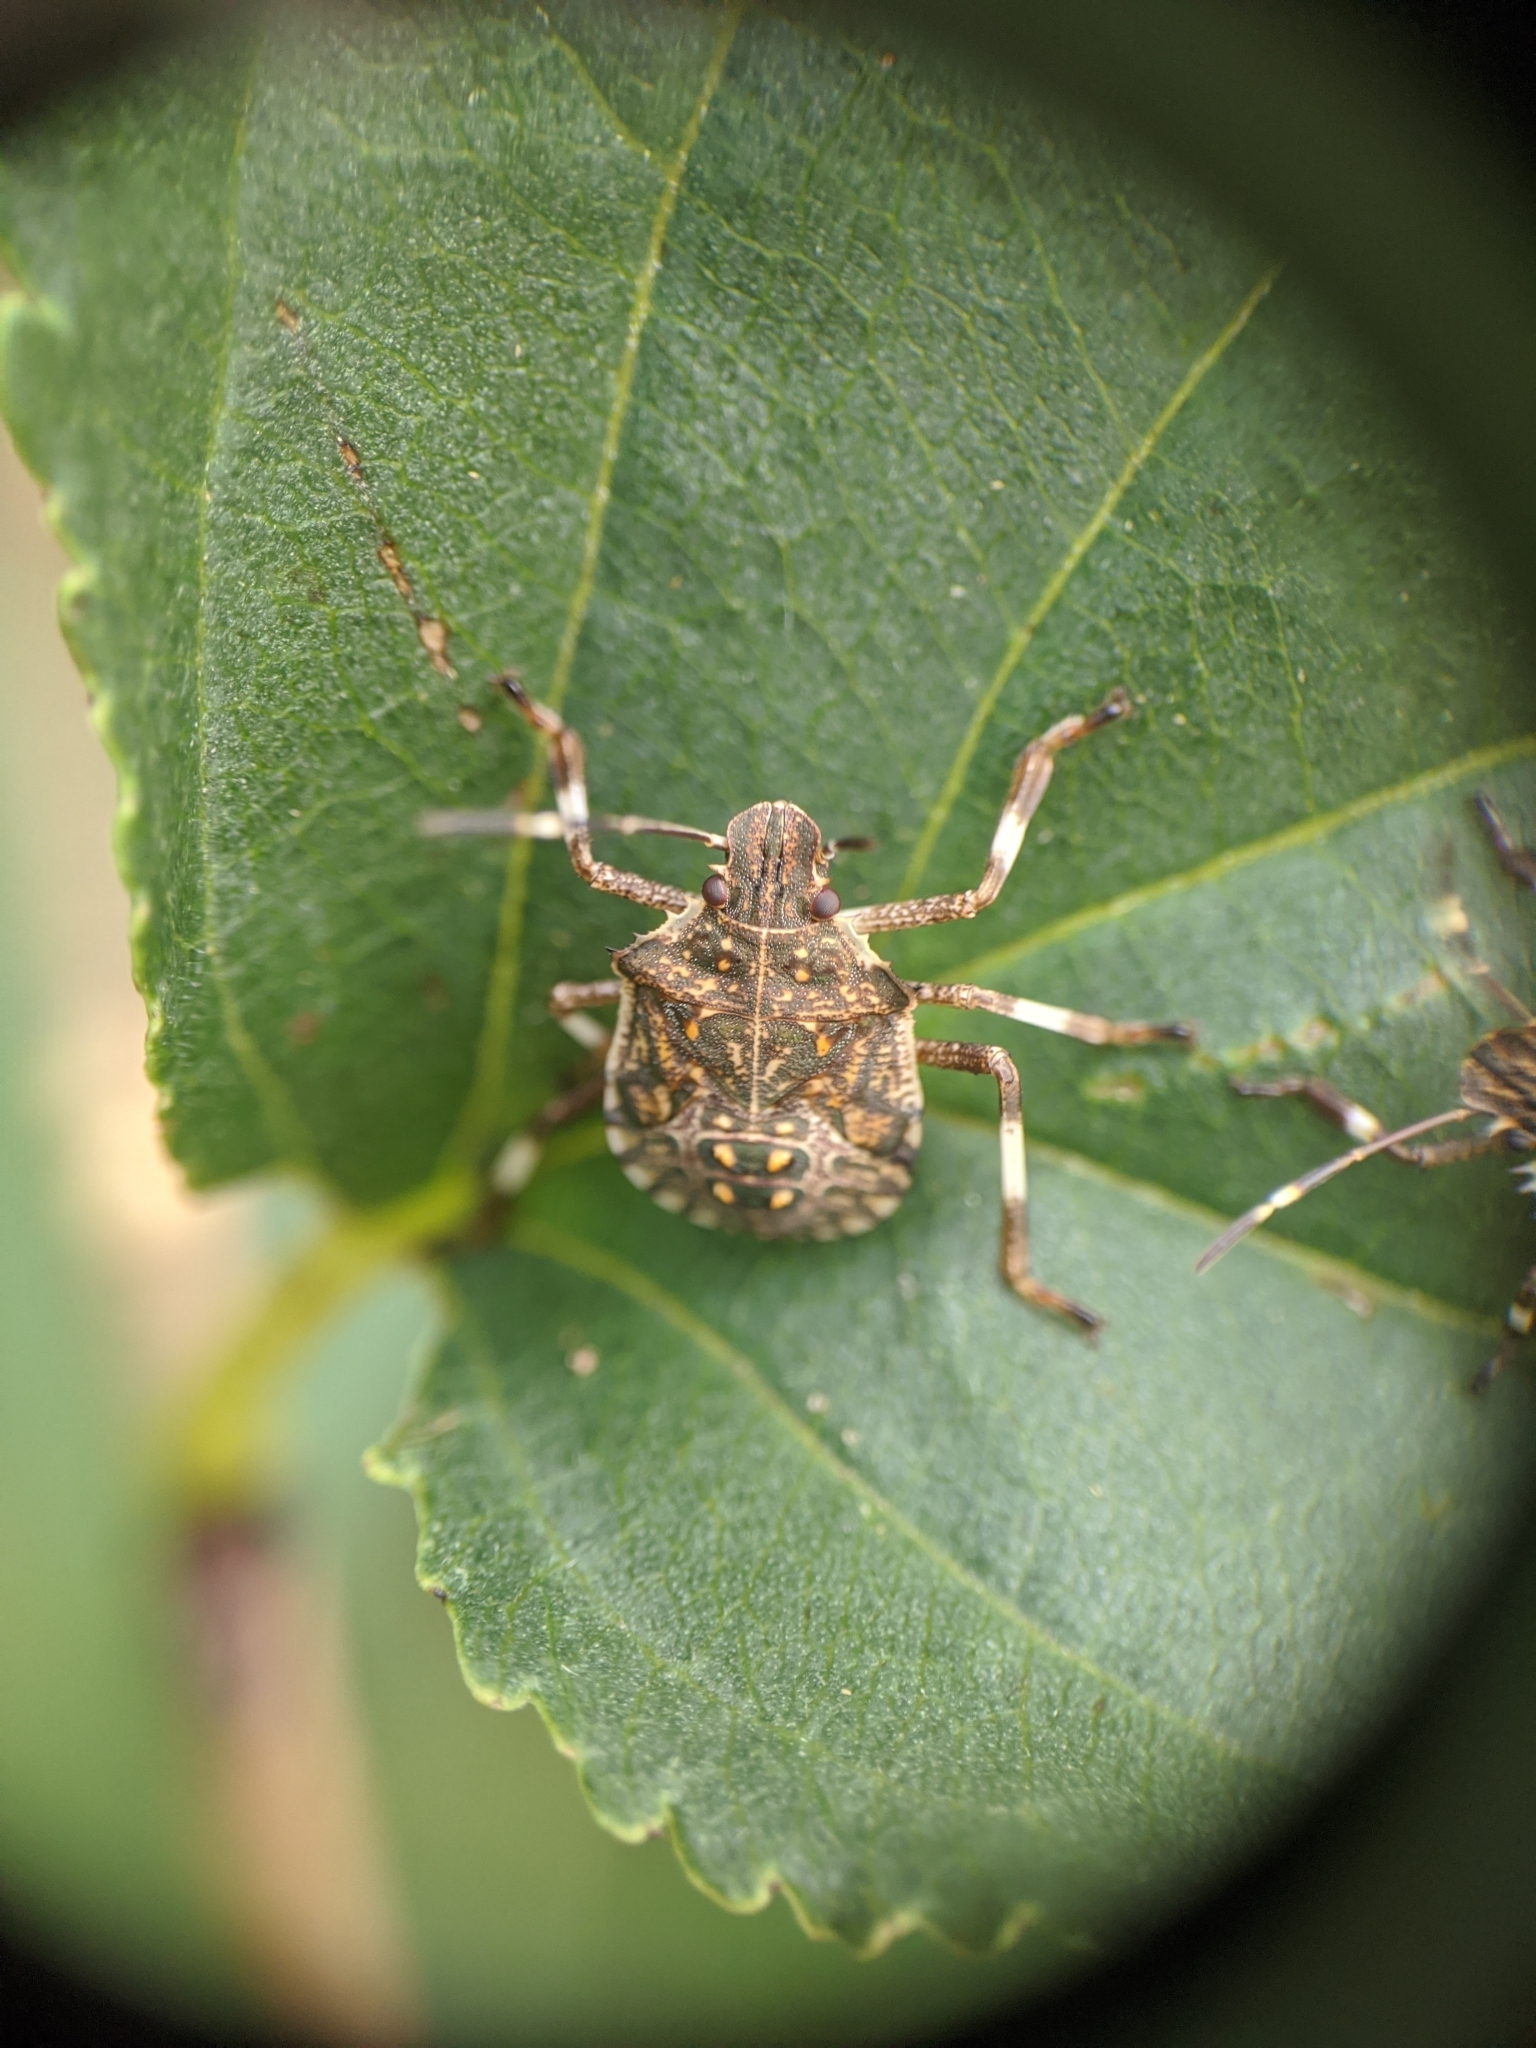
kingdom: Animalia
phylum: Arthropoda
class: Insecta
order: Hemiptera
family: Pentatomidae
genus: Halyomorpha
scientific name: Halyomorpha halys
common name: Brown marmorated stink bug
